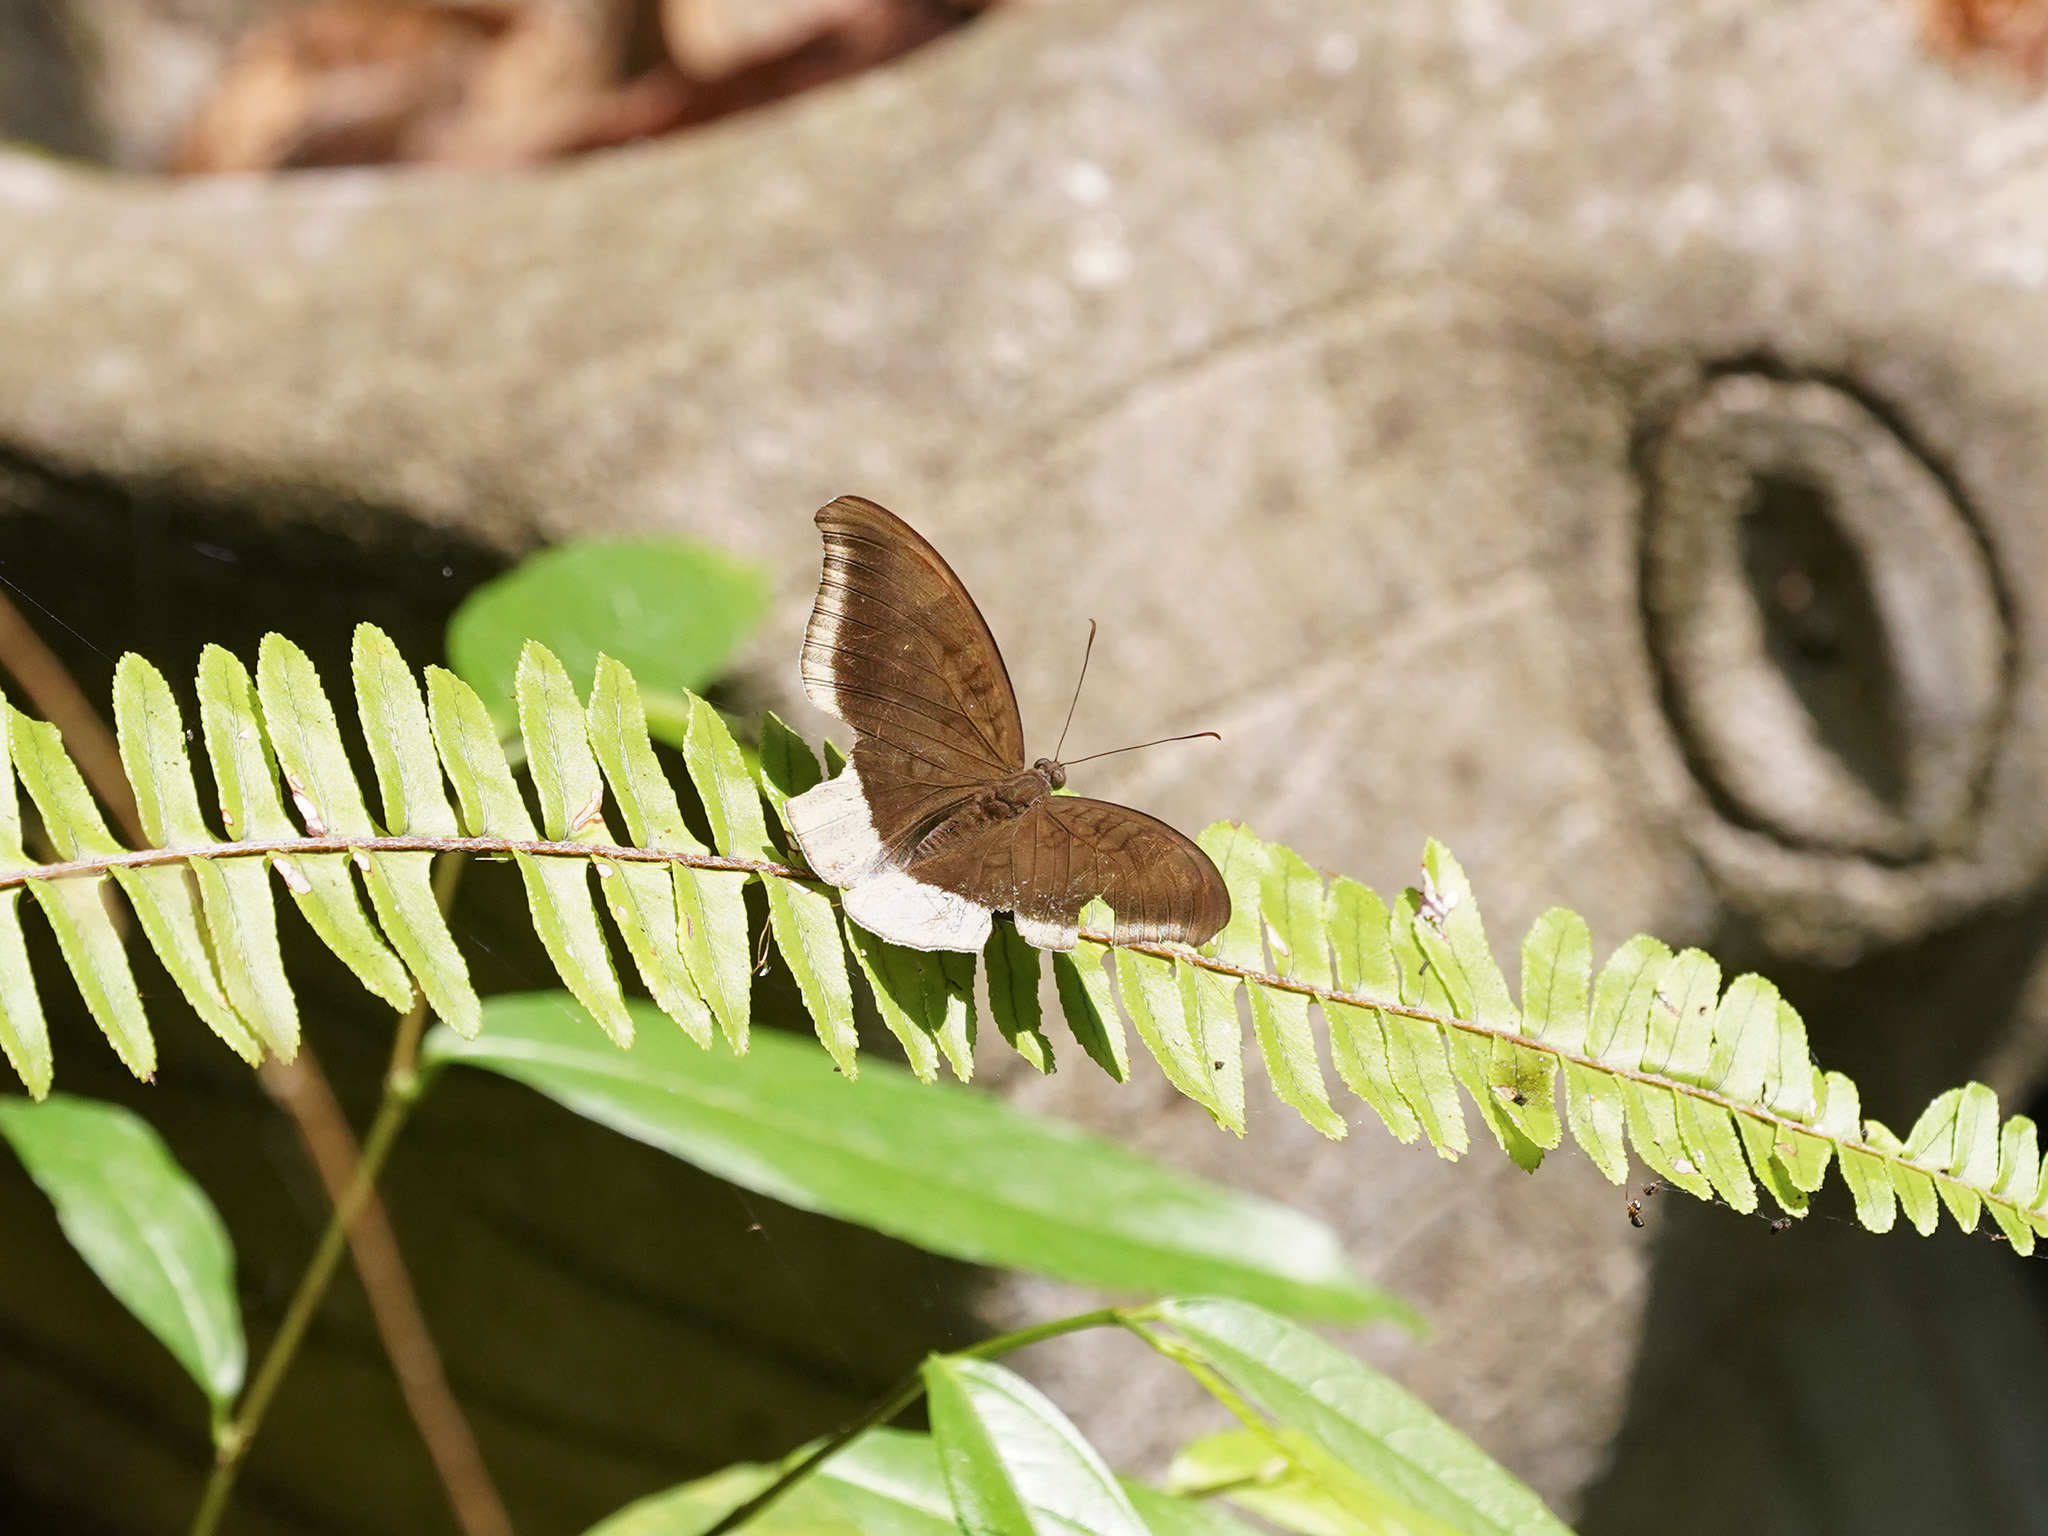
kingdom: Animalia
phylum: Arthropoda
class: Insecta
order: Lepidoptera
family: Nymphalidae
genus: Tanaecia
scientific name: Tanaecia lepidea
